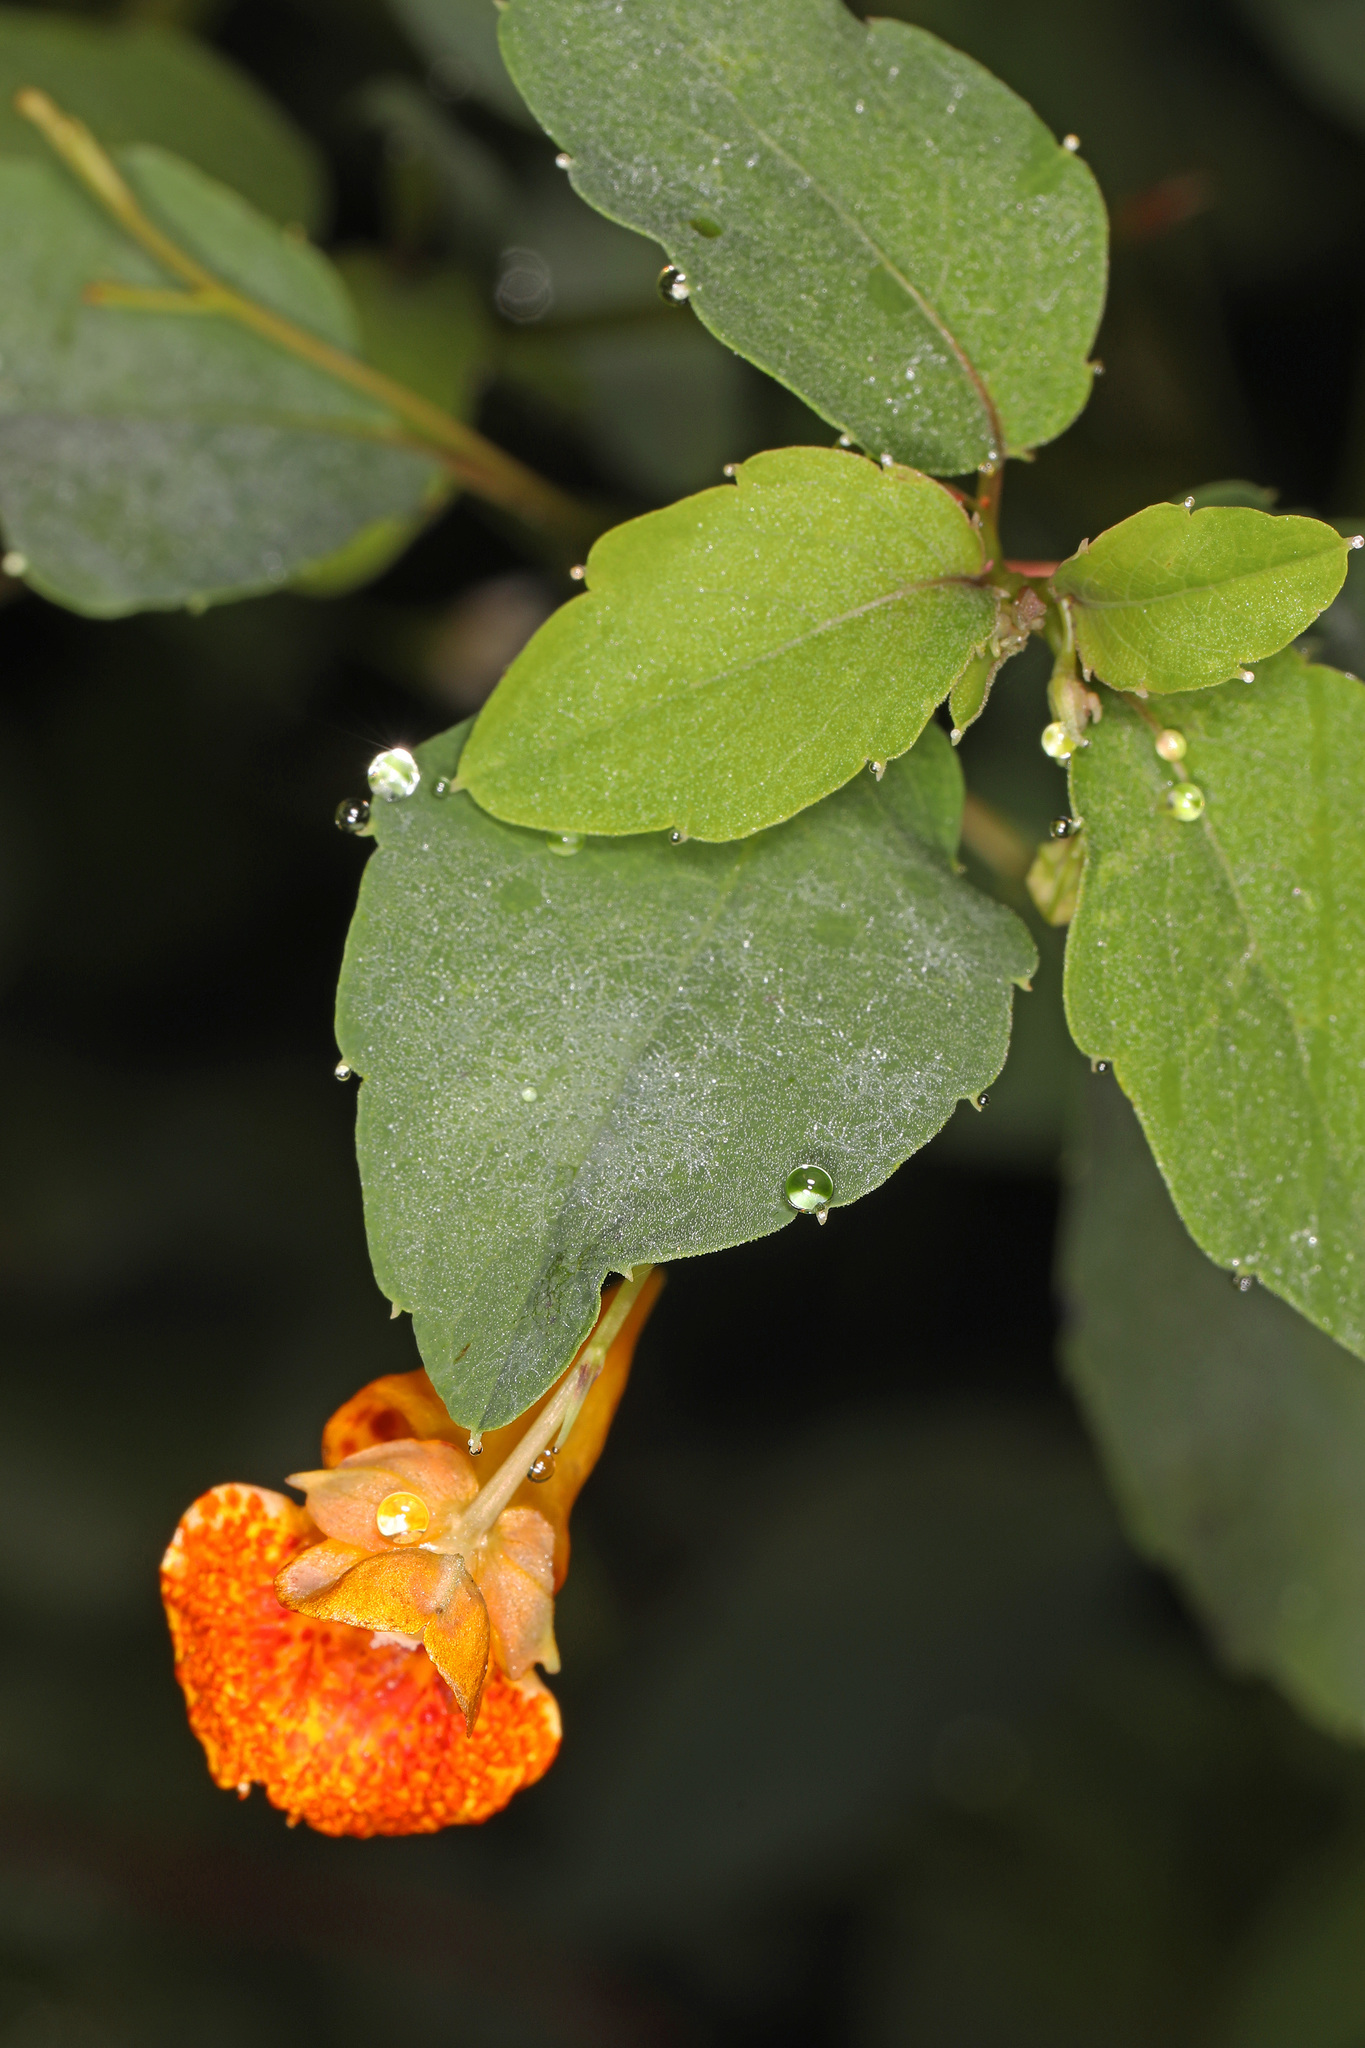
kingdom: Plantae
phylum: Tracheophyta
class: Magnoliopsida
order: Ericales
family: Balsaminaceae
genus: Impatiens
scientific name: Impatiens capensis
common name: Orange balsam
